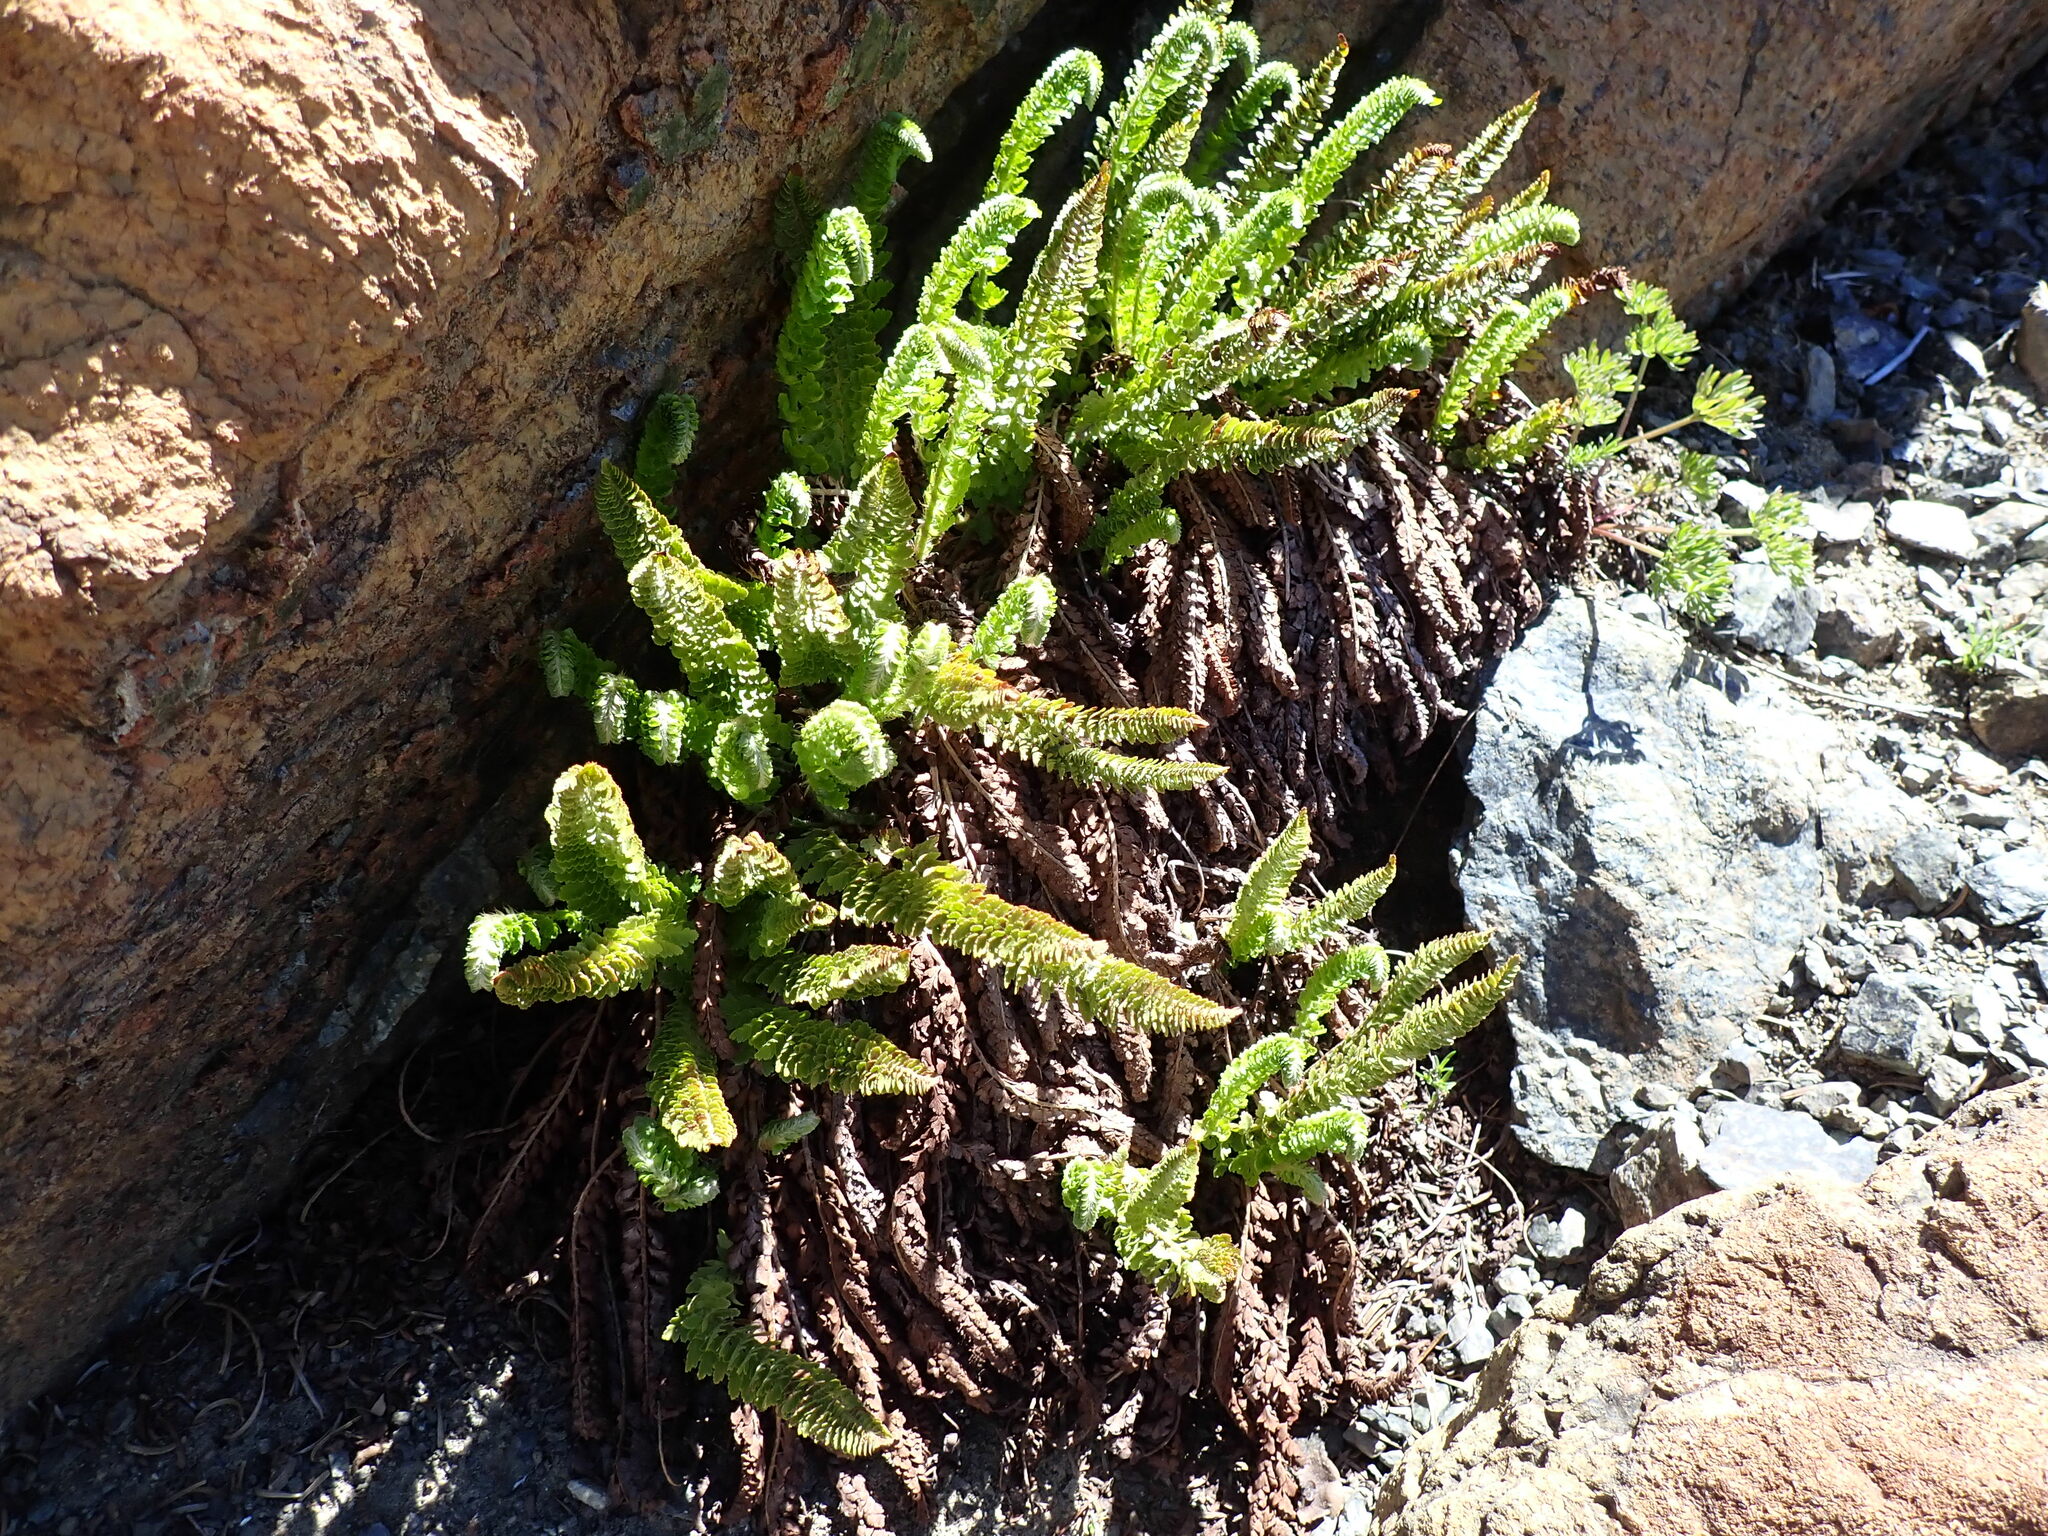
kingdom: Plantae
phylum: Tracheophyta
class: Polypodiopsida
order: Polypodiales
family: Dryopteridaceae
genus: Polystichum
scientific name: Polystichum lemmonii
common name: Lemmon's holly fern
